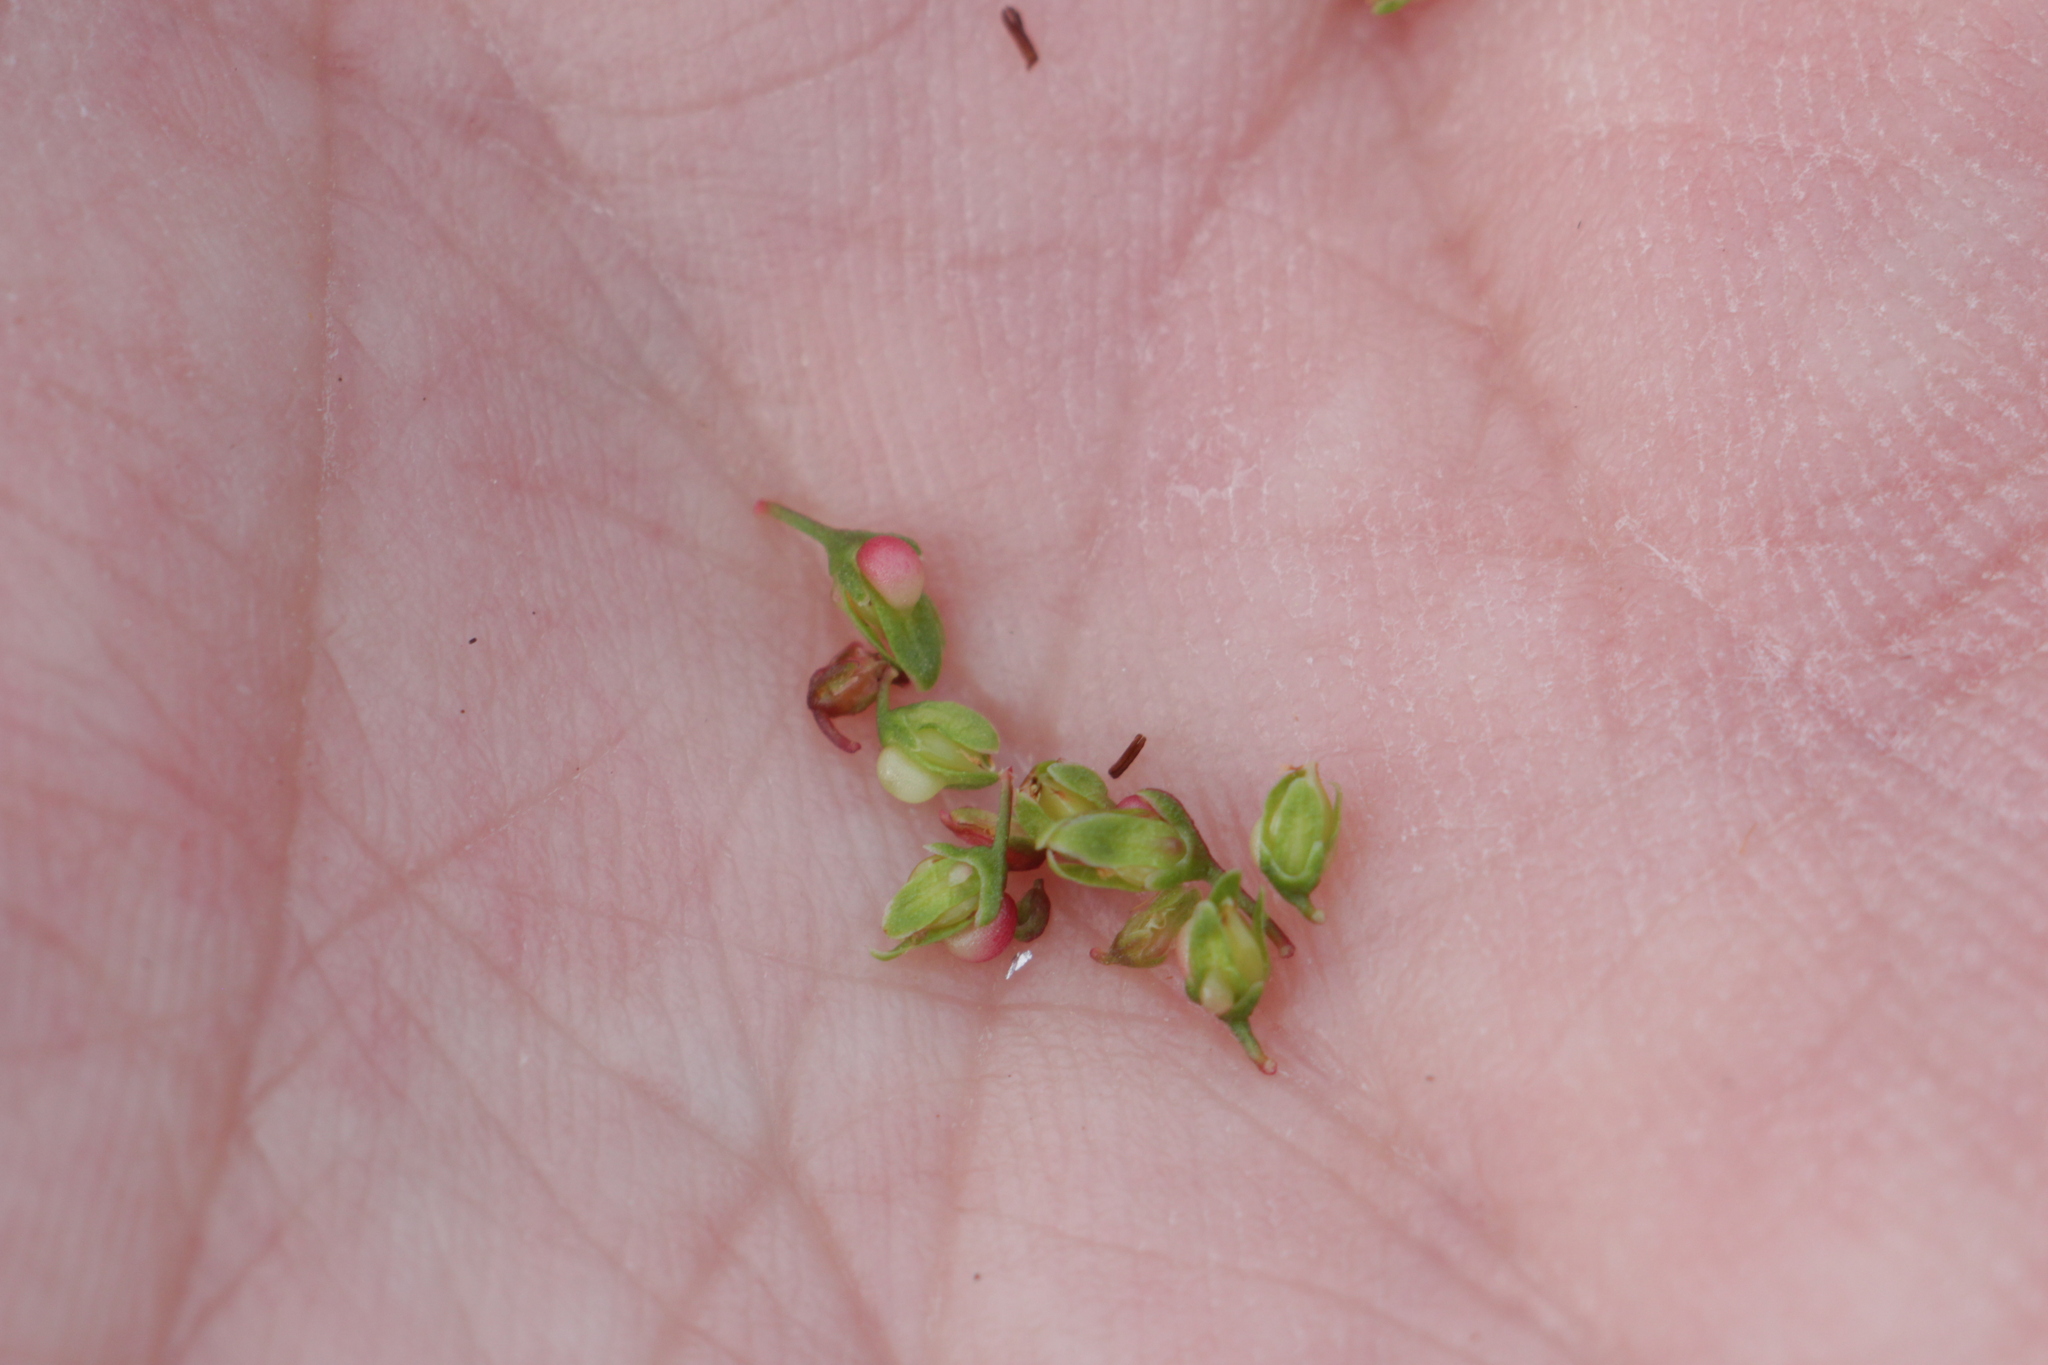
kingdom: Plantae
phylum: Tracheophyta
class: Magnoliopsida
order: Caryophyllales
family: Polygonaceae
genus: Rumex
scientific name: Rumex sanguineus
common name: Wood dock
